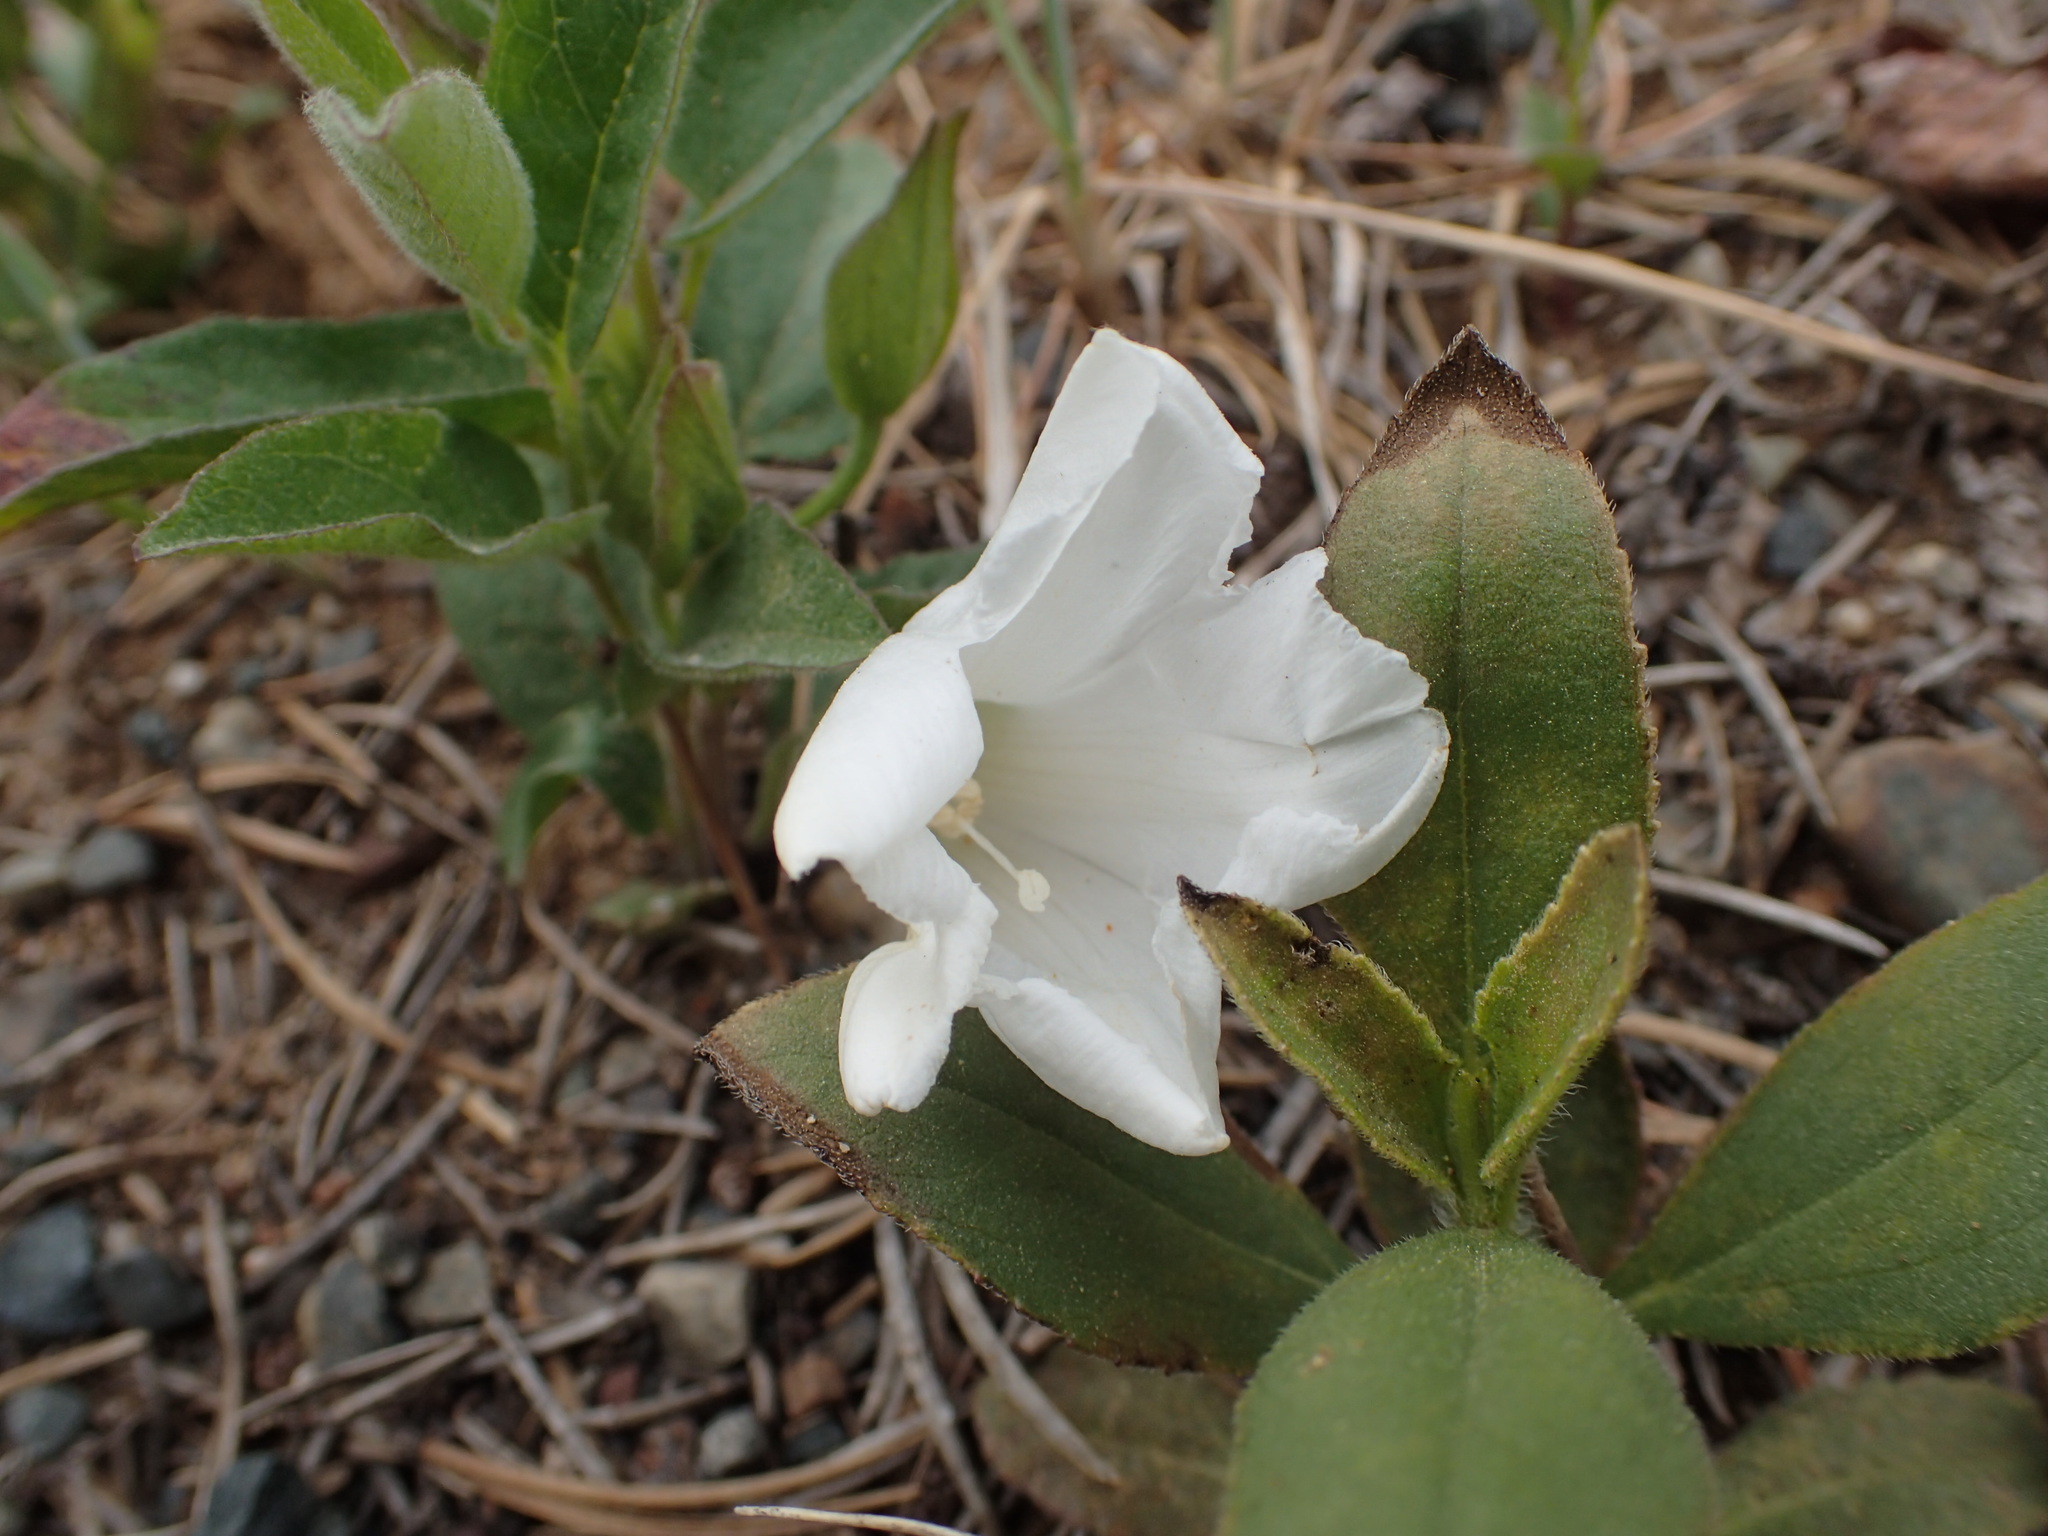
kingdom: Plantae
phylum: Tracheophyta
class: Magnoliopsida
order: Solanales
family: Convolvulaceae
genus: Calystegia
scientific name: Calystegia spithamaea
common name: Dwarf bindweed
